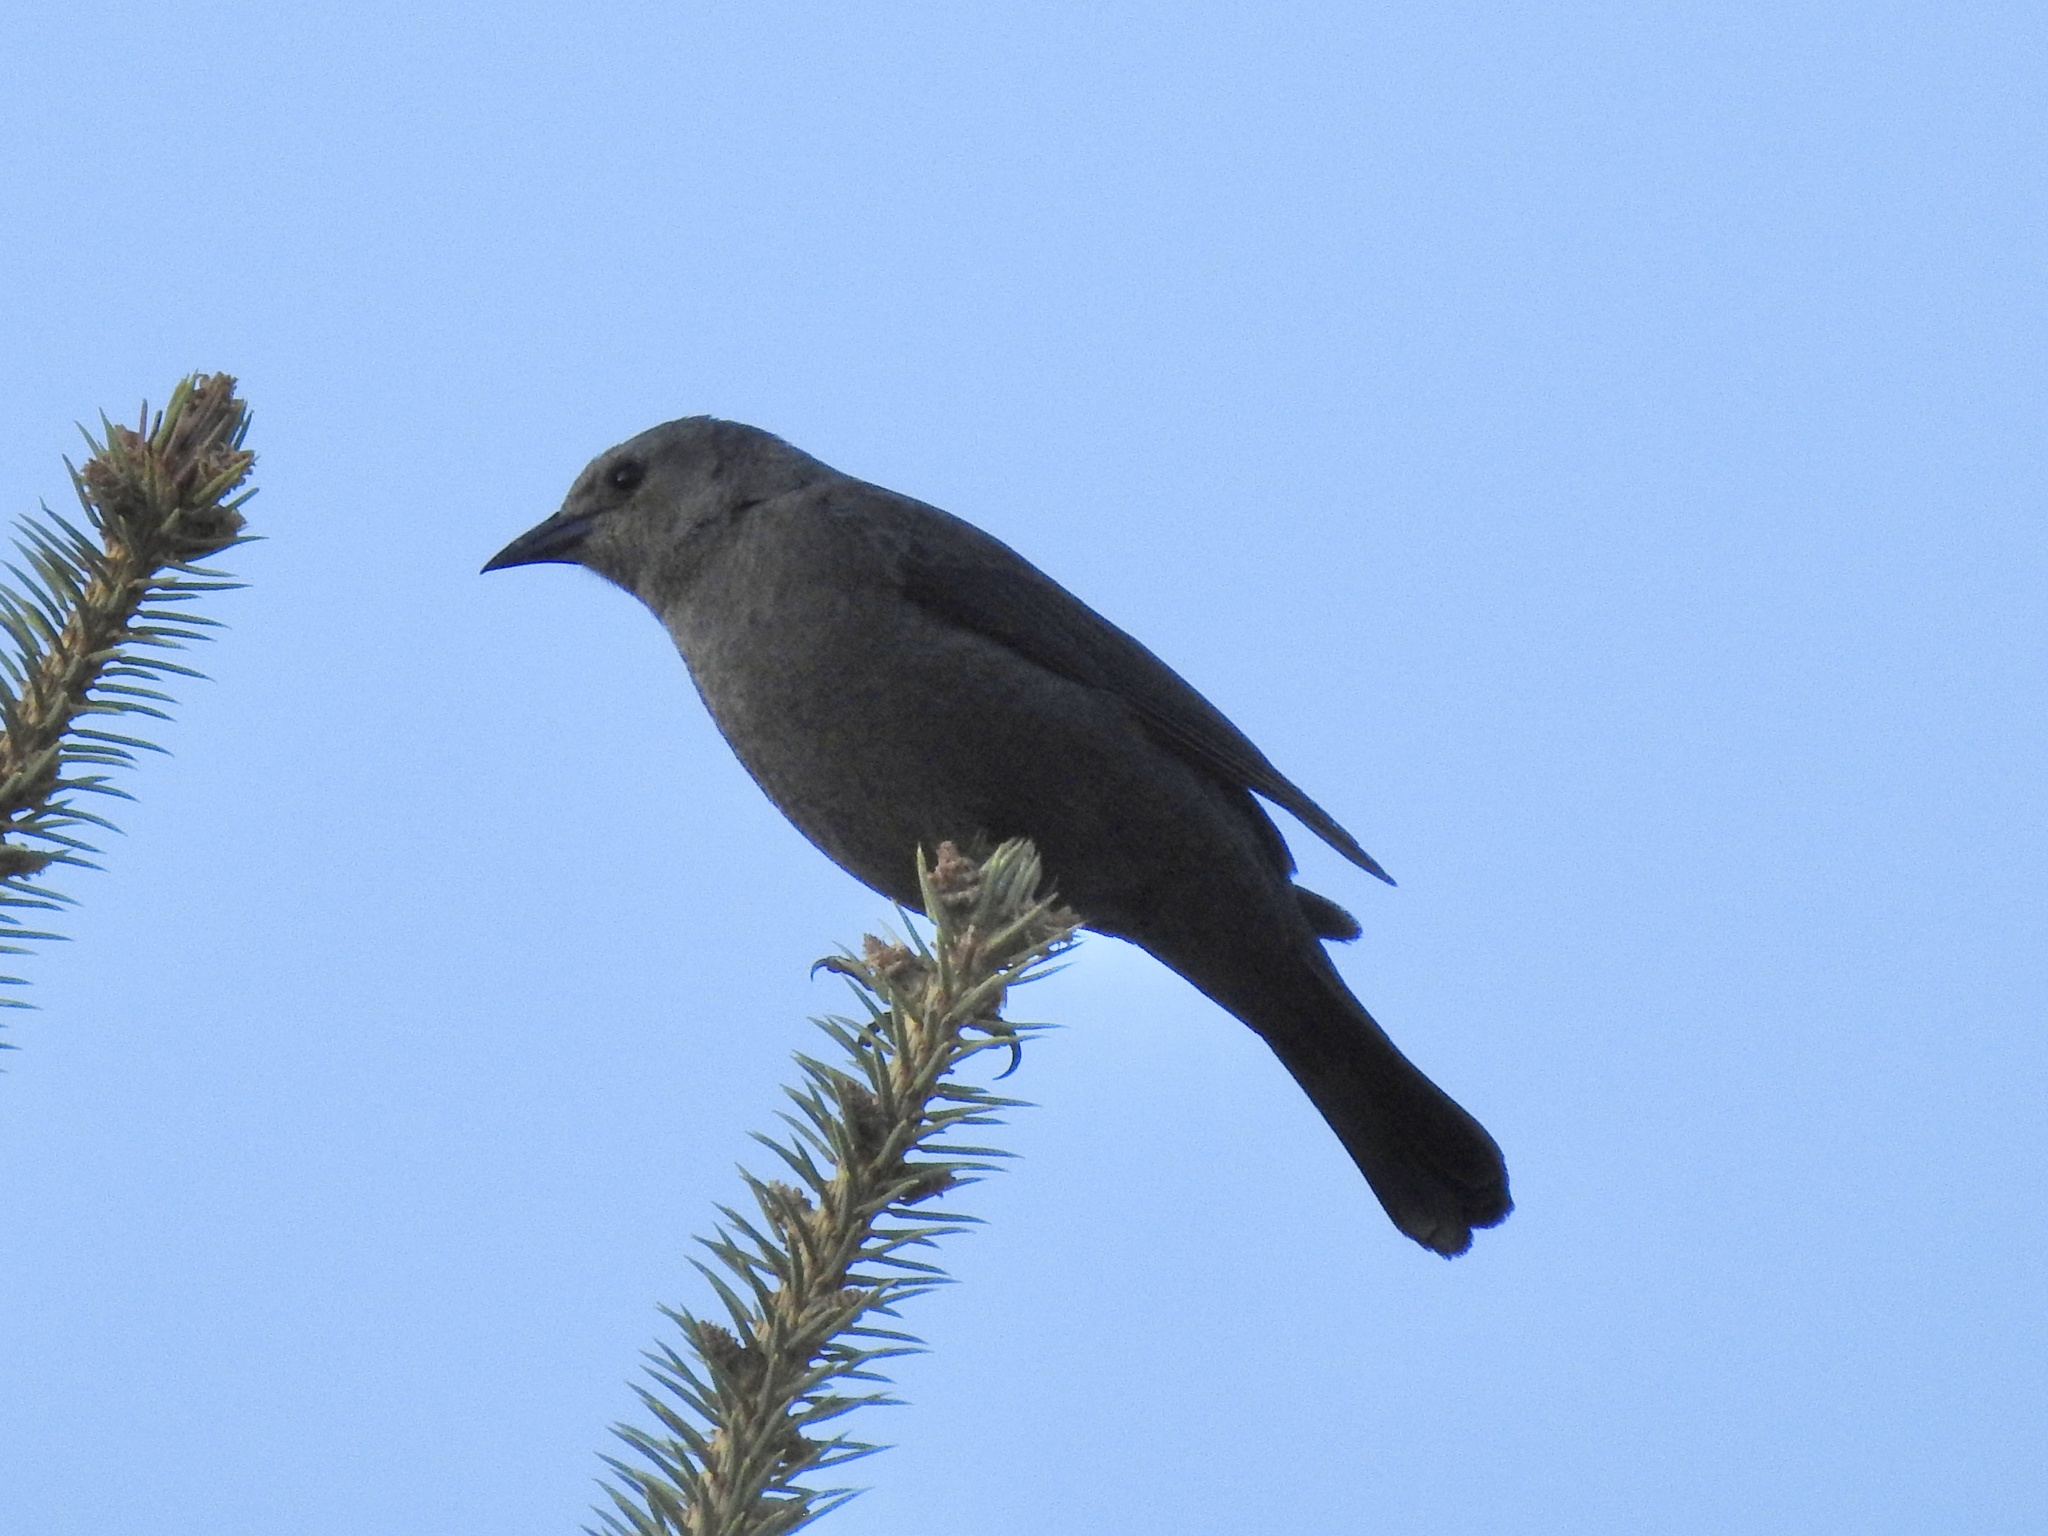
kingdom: Animalia
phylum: Chordata
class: Aves
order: Passeriformes
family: Icteridae
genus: Euphagus
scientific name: Euphagus cyanocephalus
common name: Brewer's blackbird
